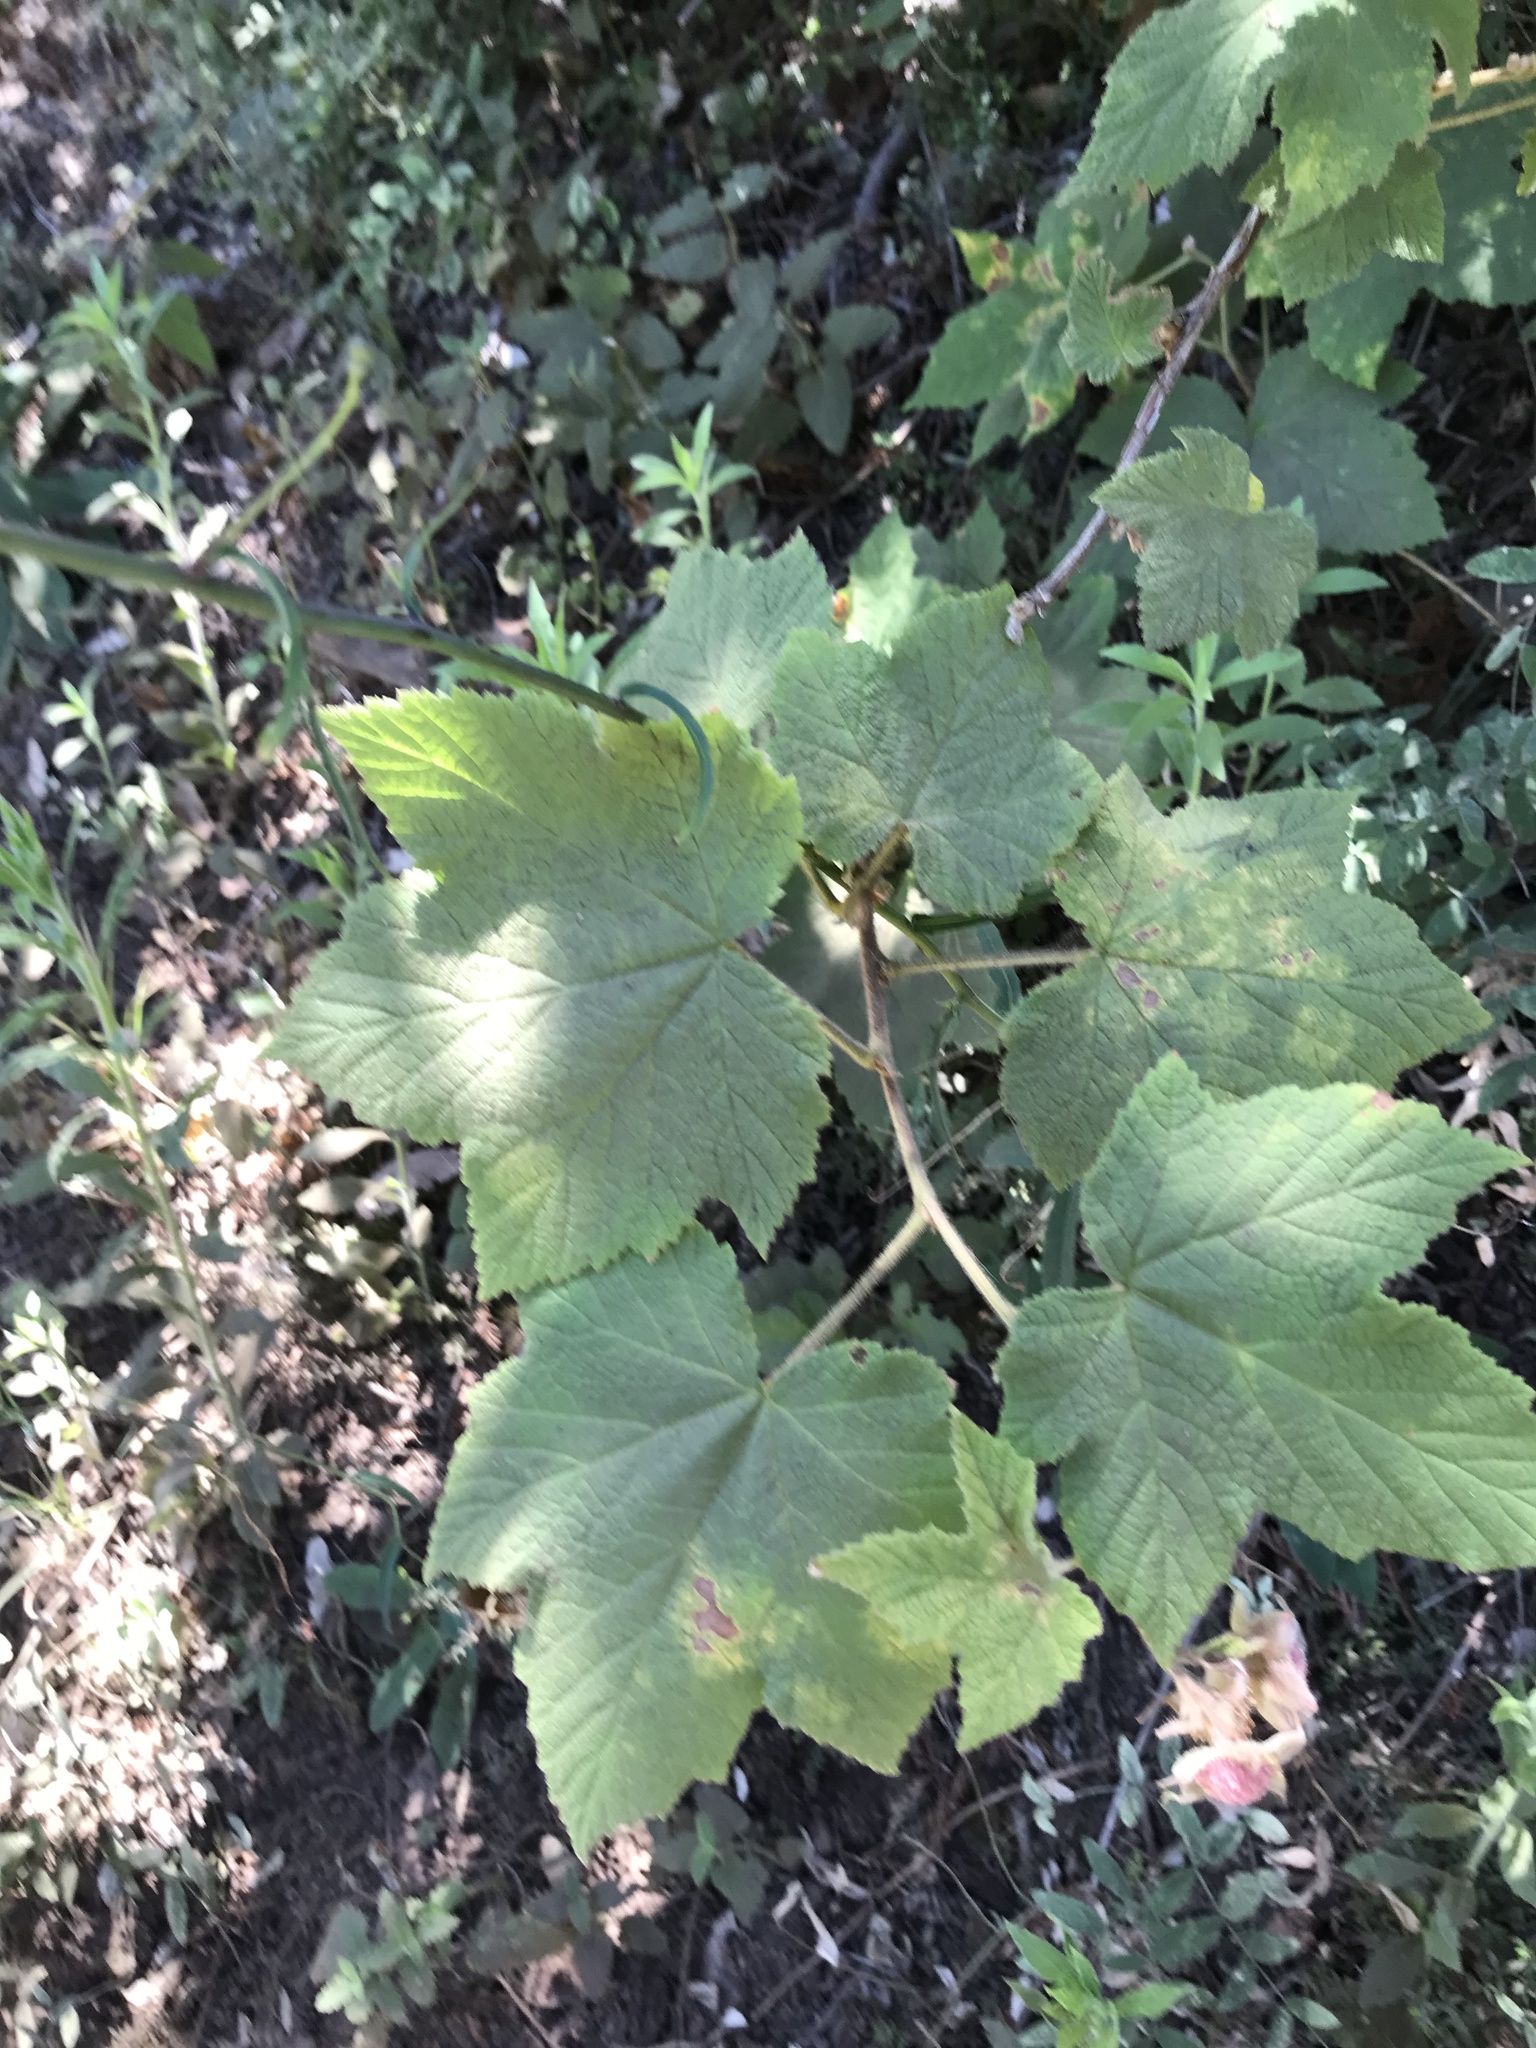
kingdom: Plantae
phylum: Tracheophyta
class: Magnoliopsida
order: Rosales
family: Rosaceae
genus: Rubus
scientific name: Rubus parviflorus
